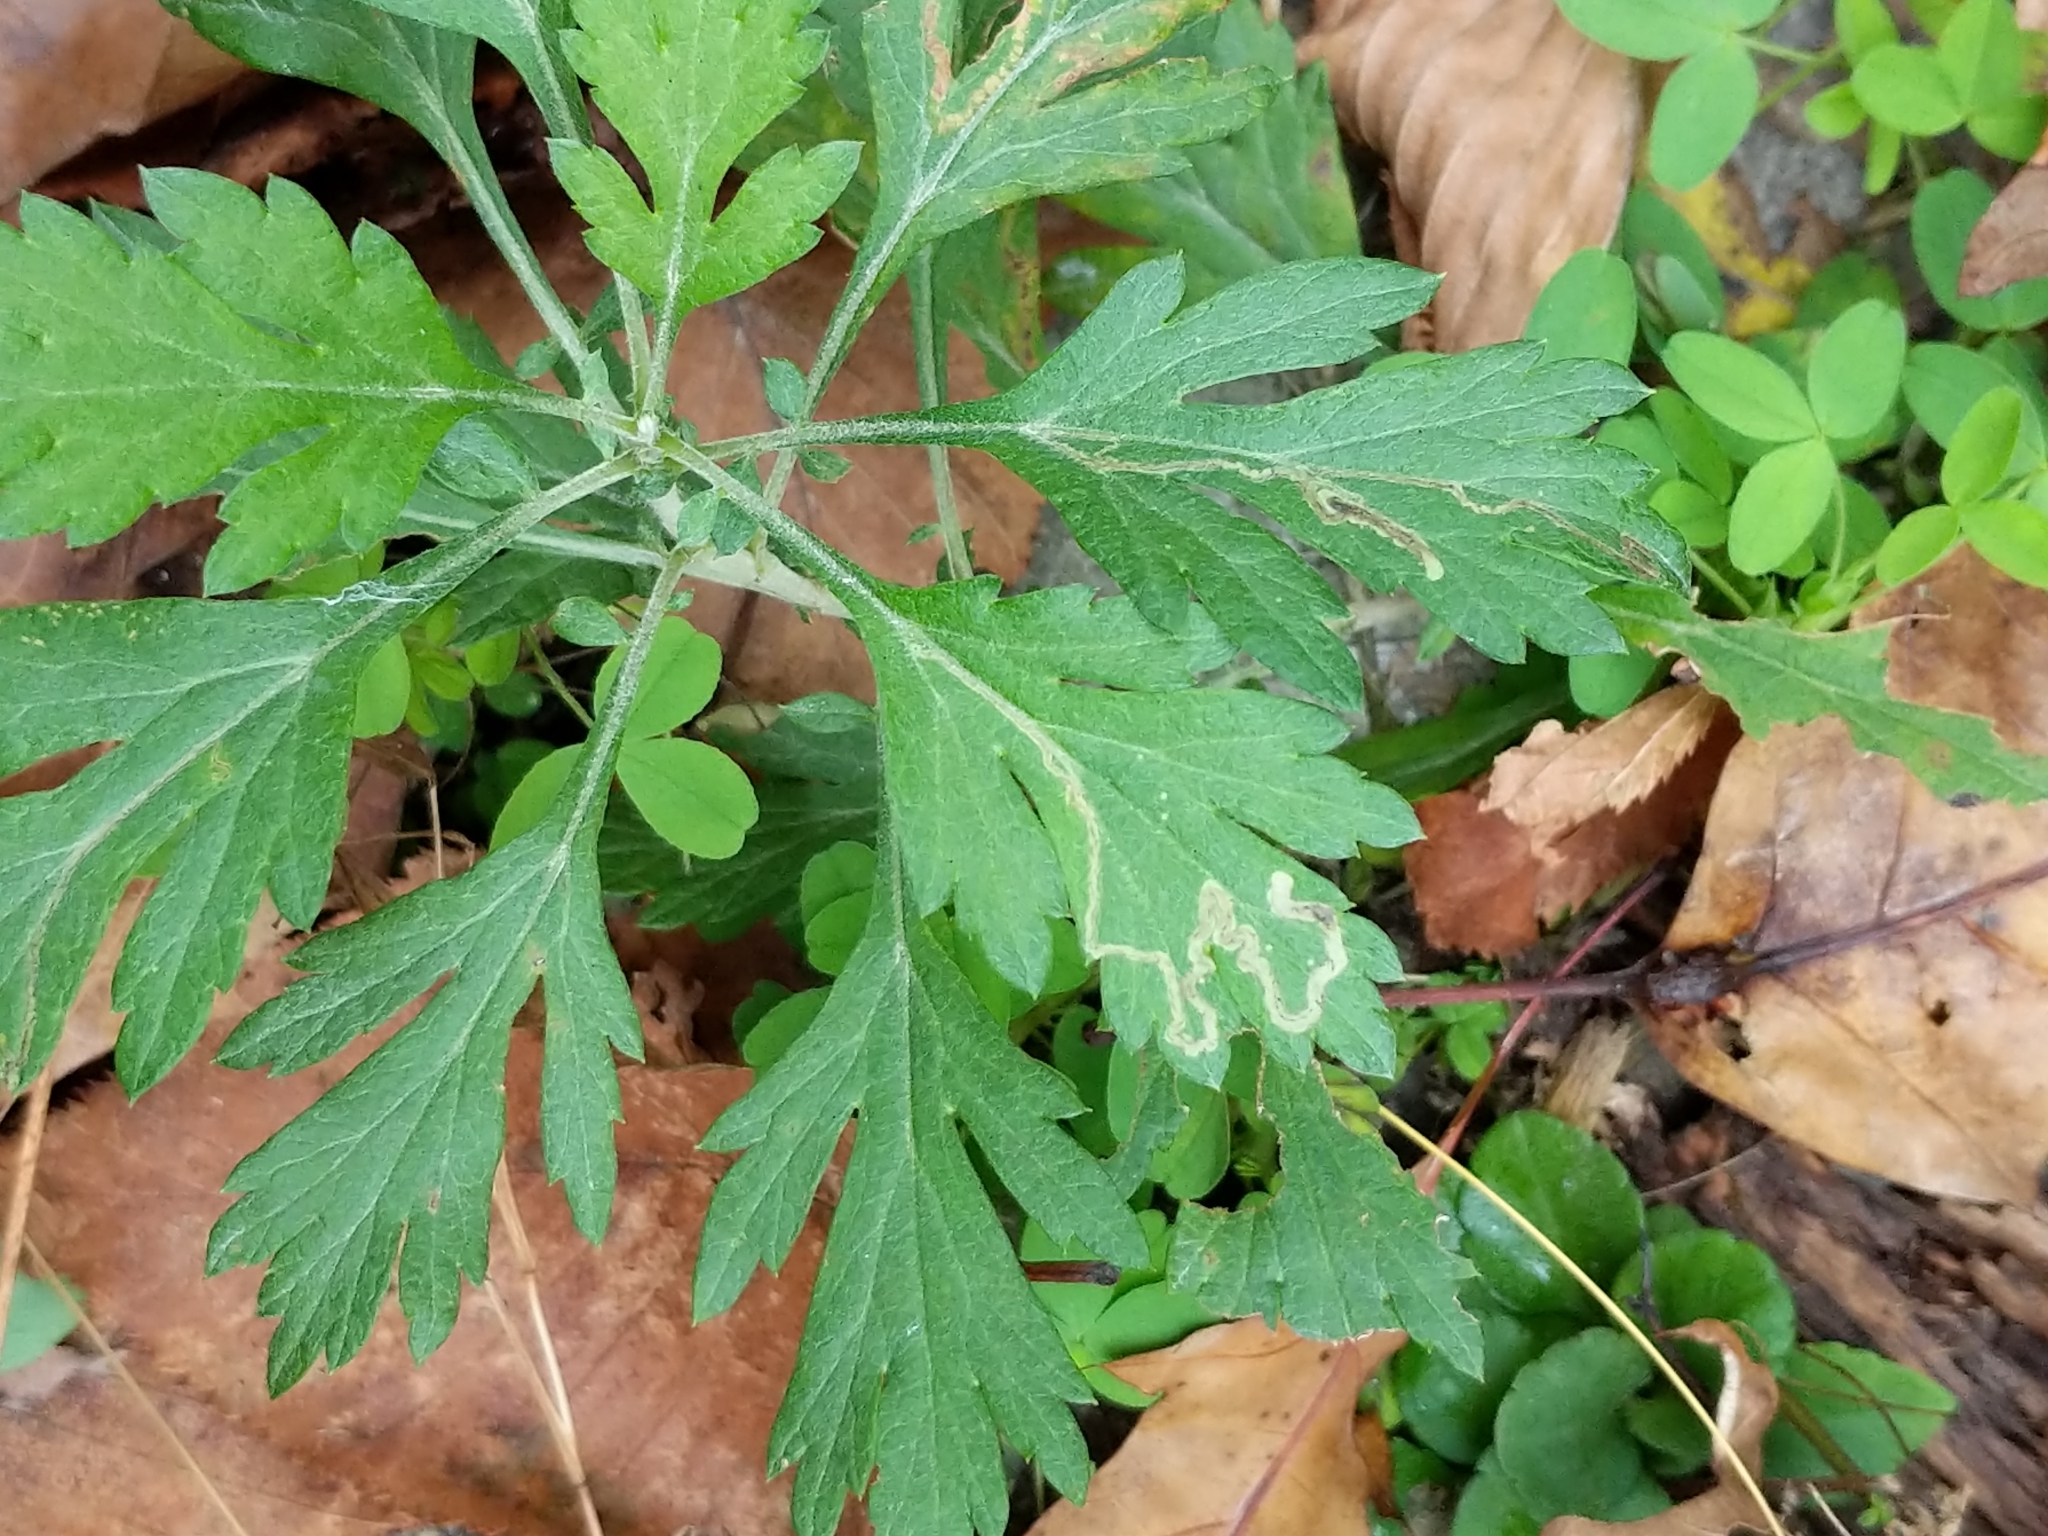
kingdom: Plantae
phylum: Tracheophyta
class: Magnoliopsida
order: Asterales
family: Asteraceae
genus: Artemisia
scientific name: Artemisia vulgaris
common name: Mugwort
